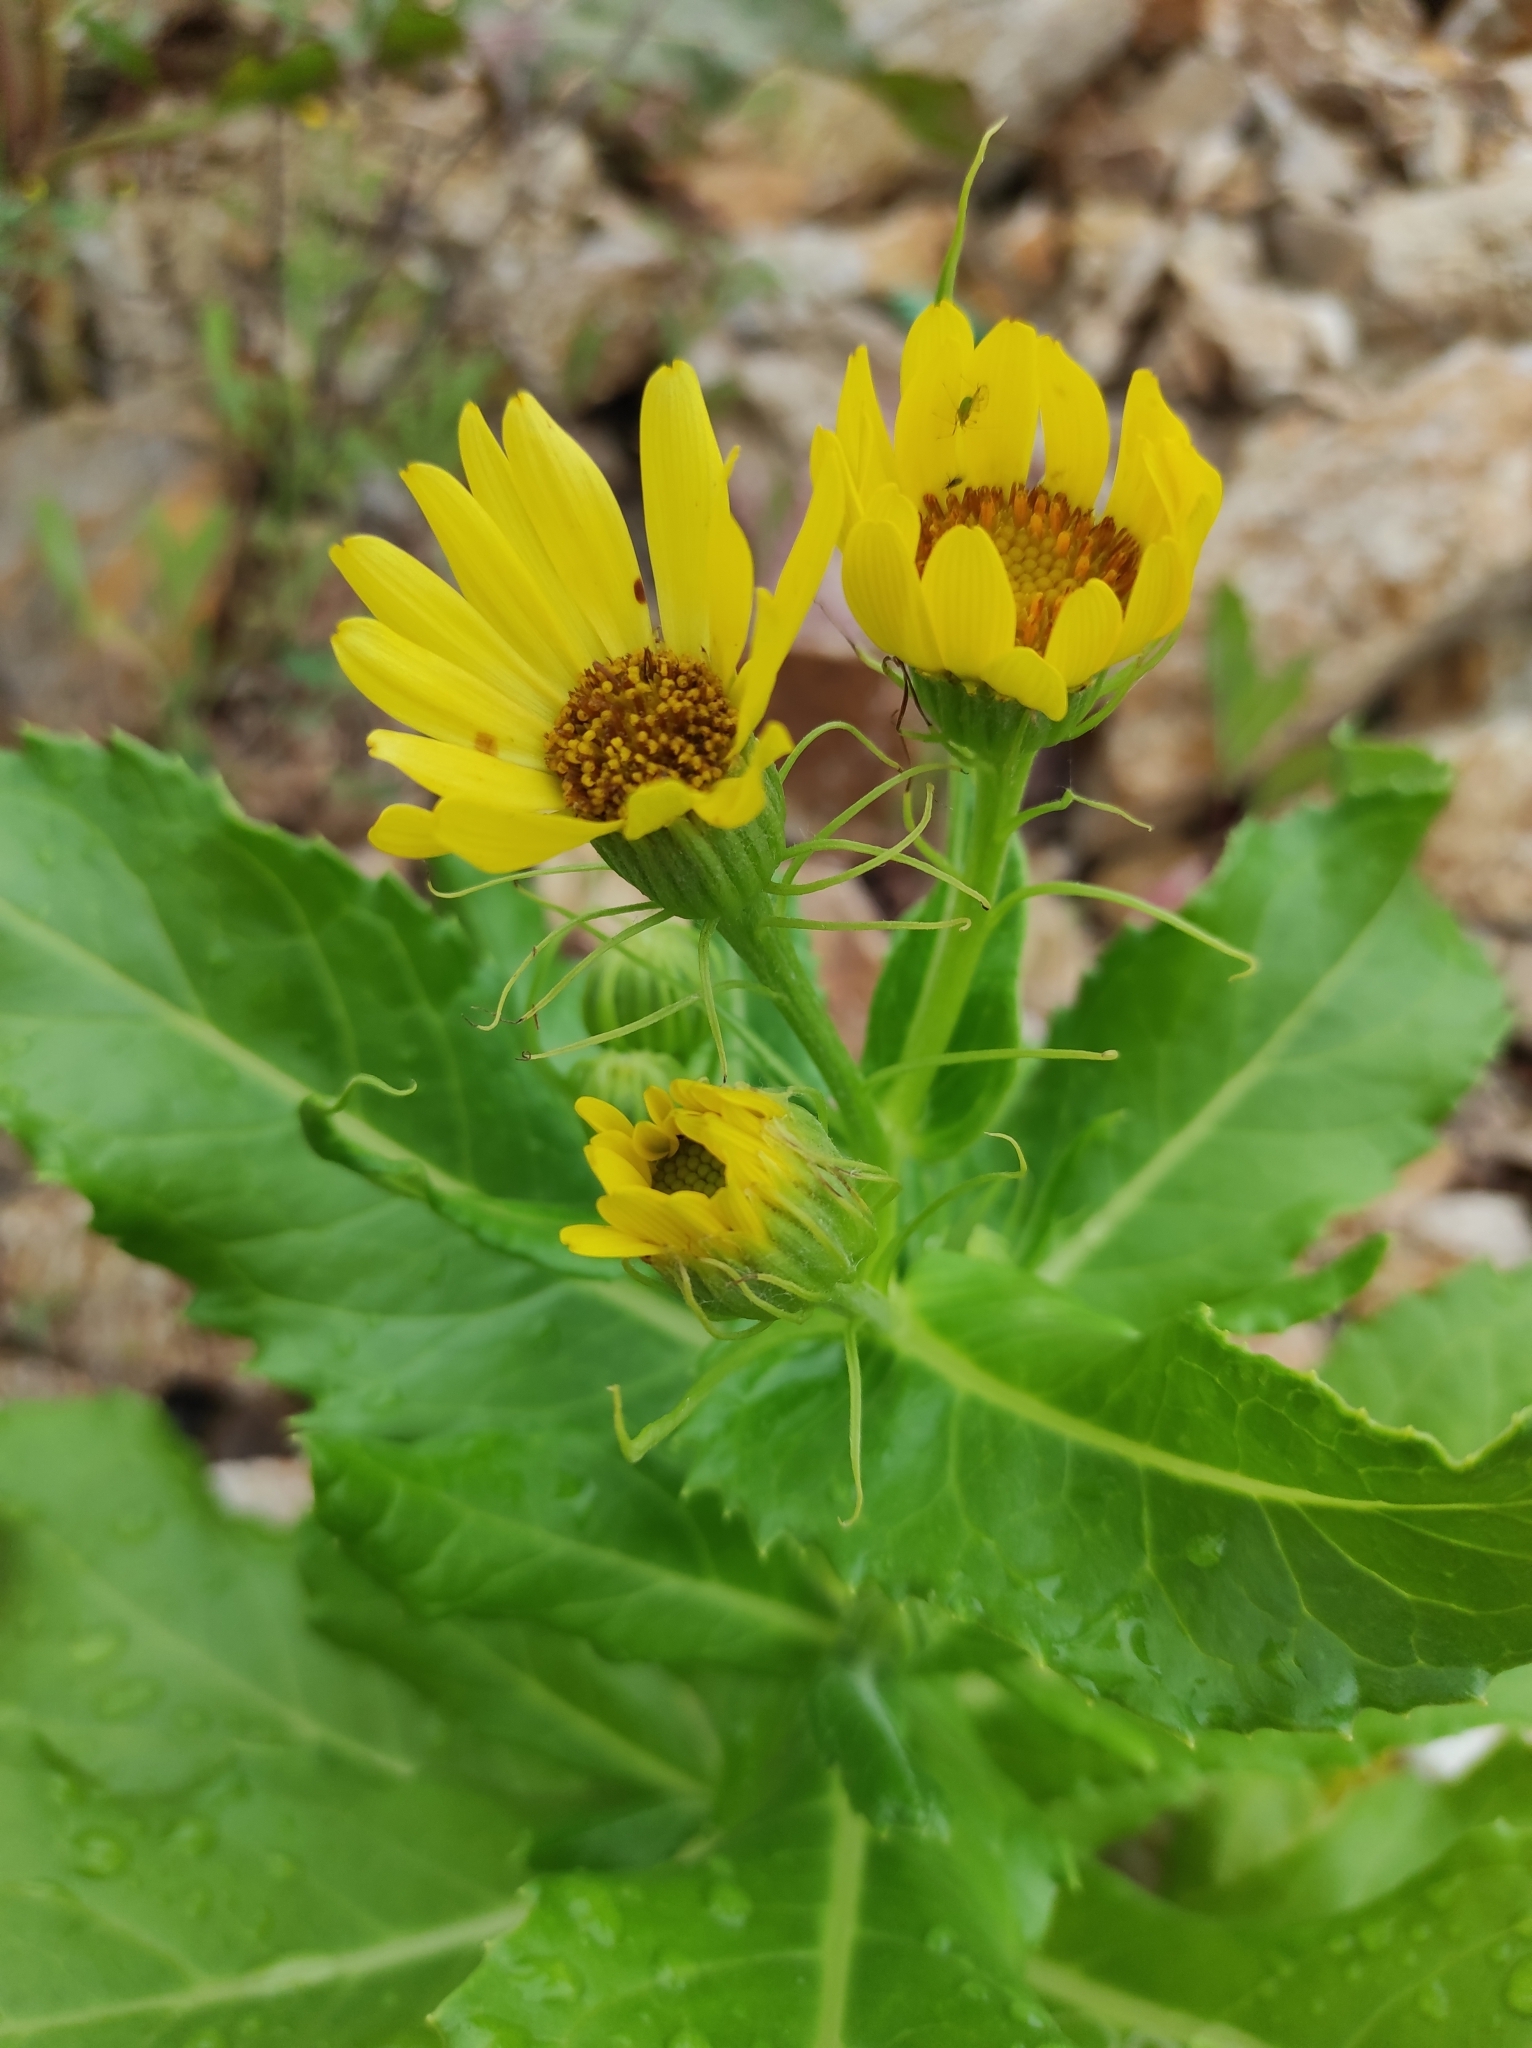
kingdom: Plantae
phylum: Tracheophyta
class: Magnoliopsida
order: Asterales
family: Asteraceae
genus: Jacobaea
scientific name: Jacobaea pseudoarnica
